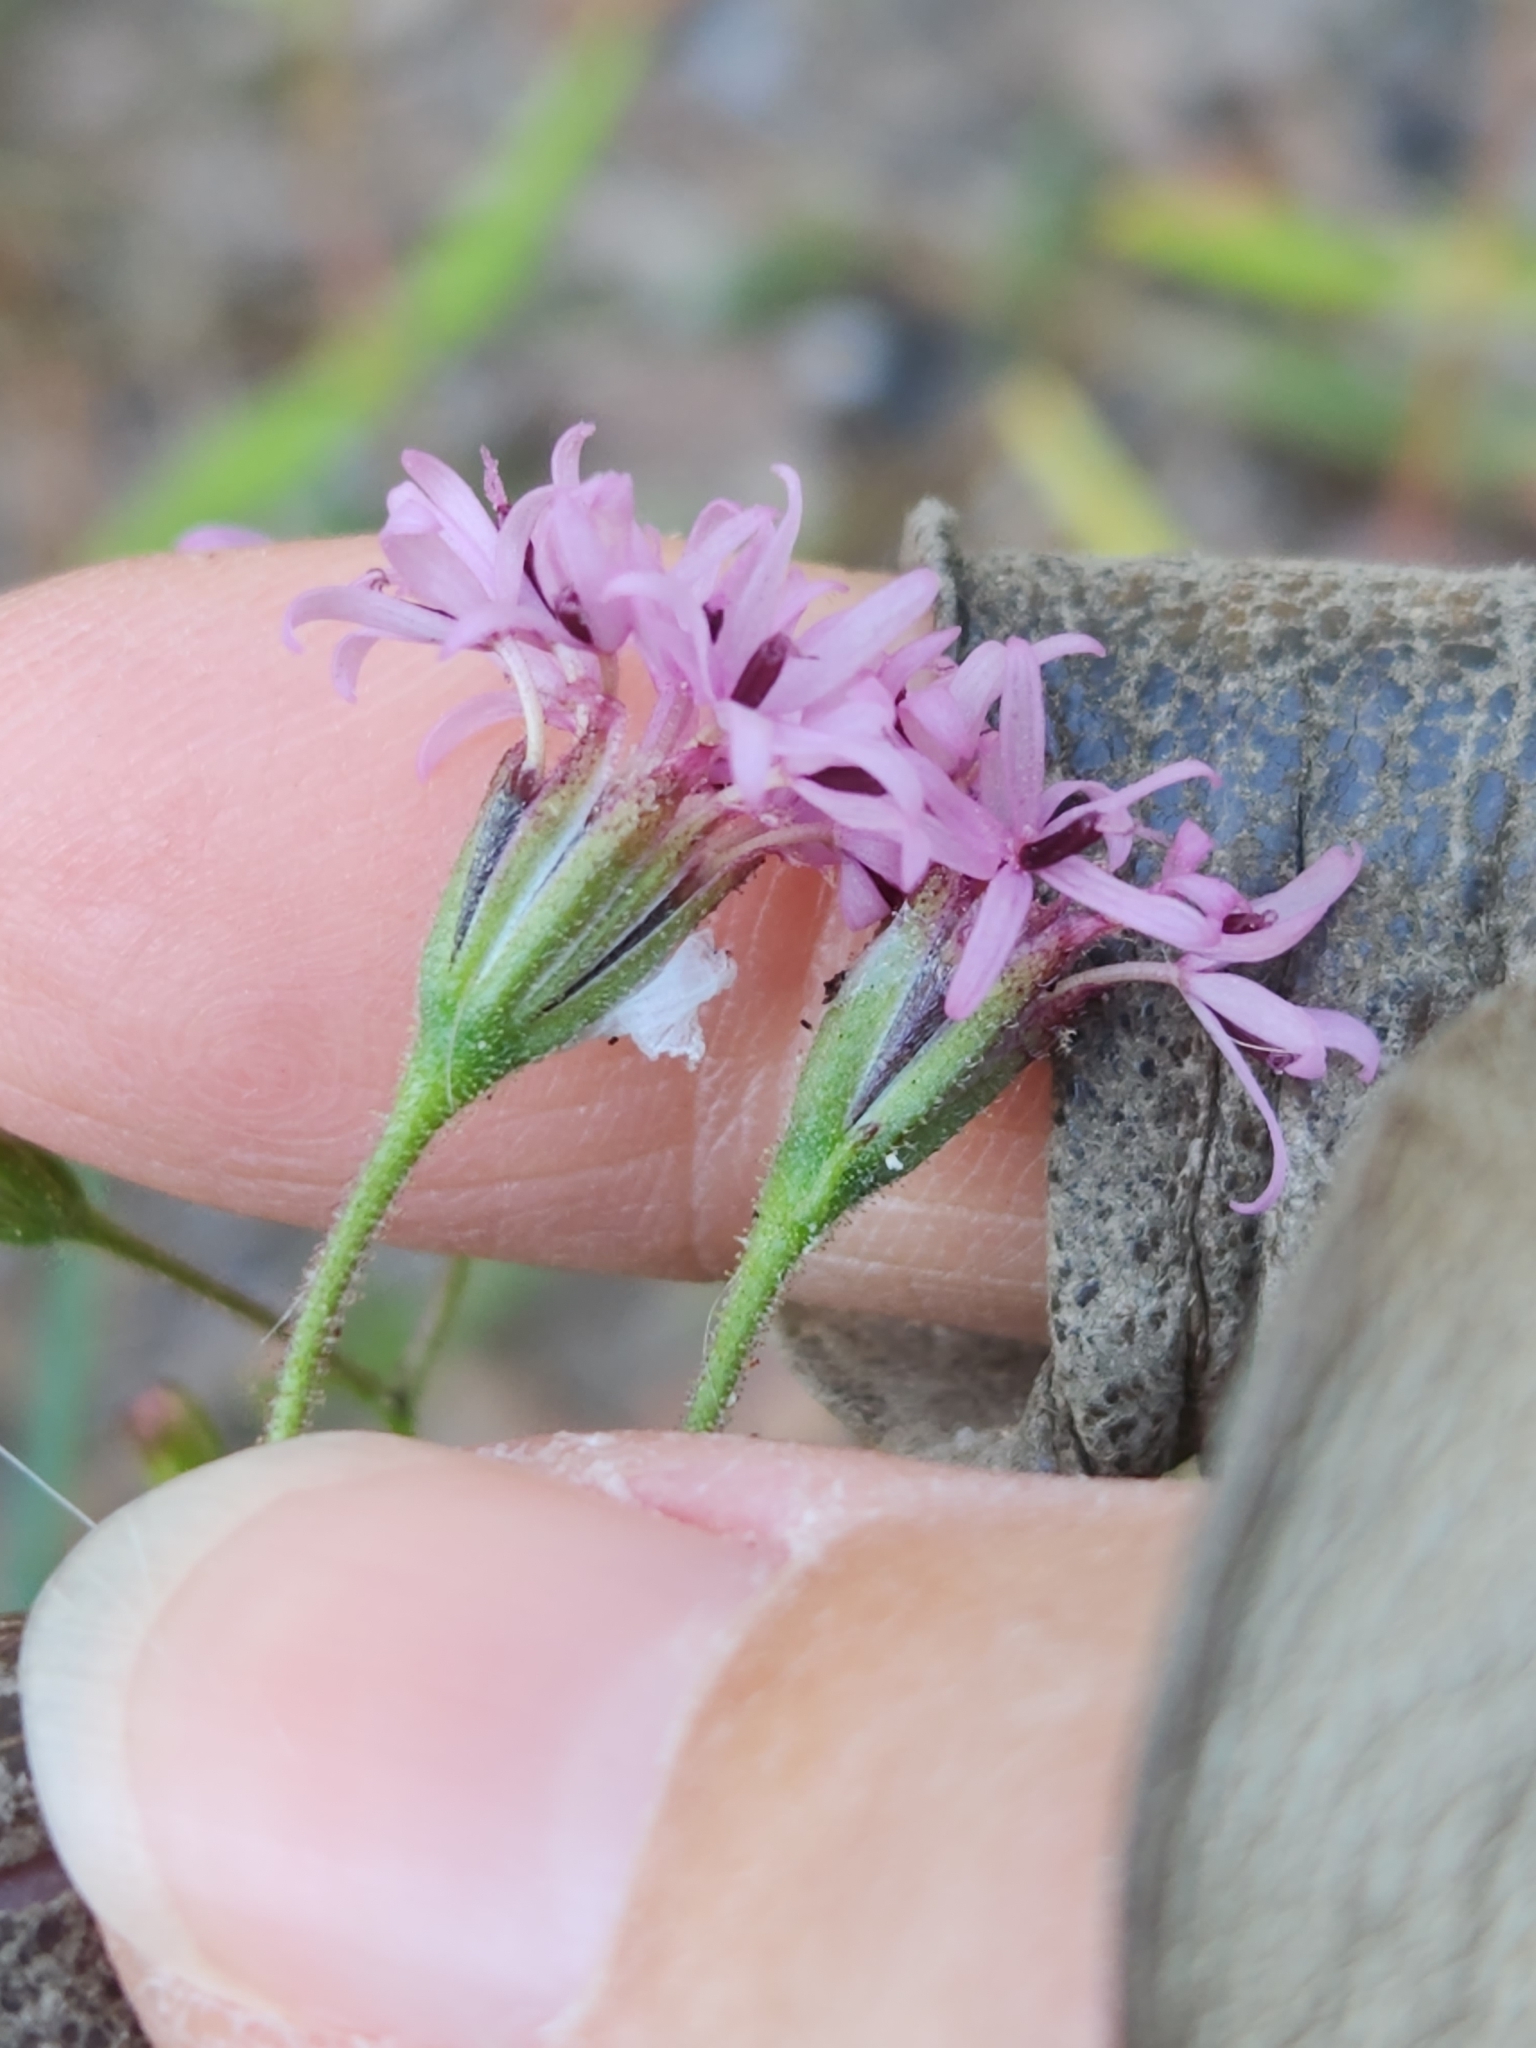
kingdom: Plantae
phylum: Tracheophyta
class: Magnoliopsida
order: Asterales
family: Asteraceae
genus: Palafoxia
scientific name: Palafoxia callosa
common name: Small palafox
